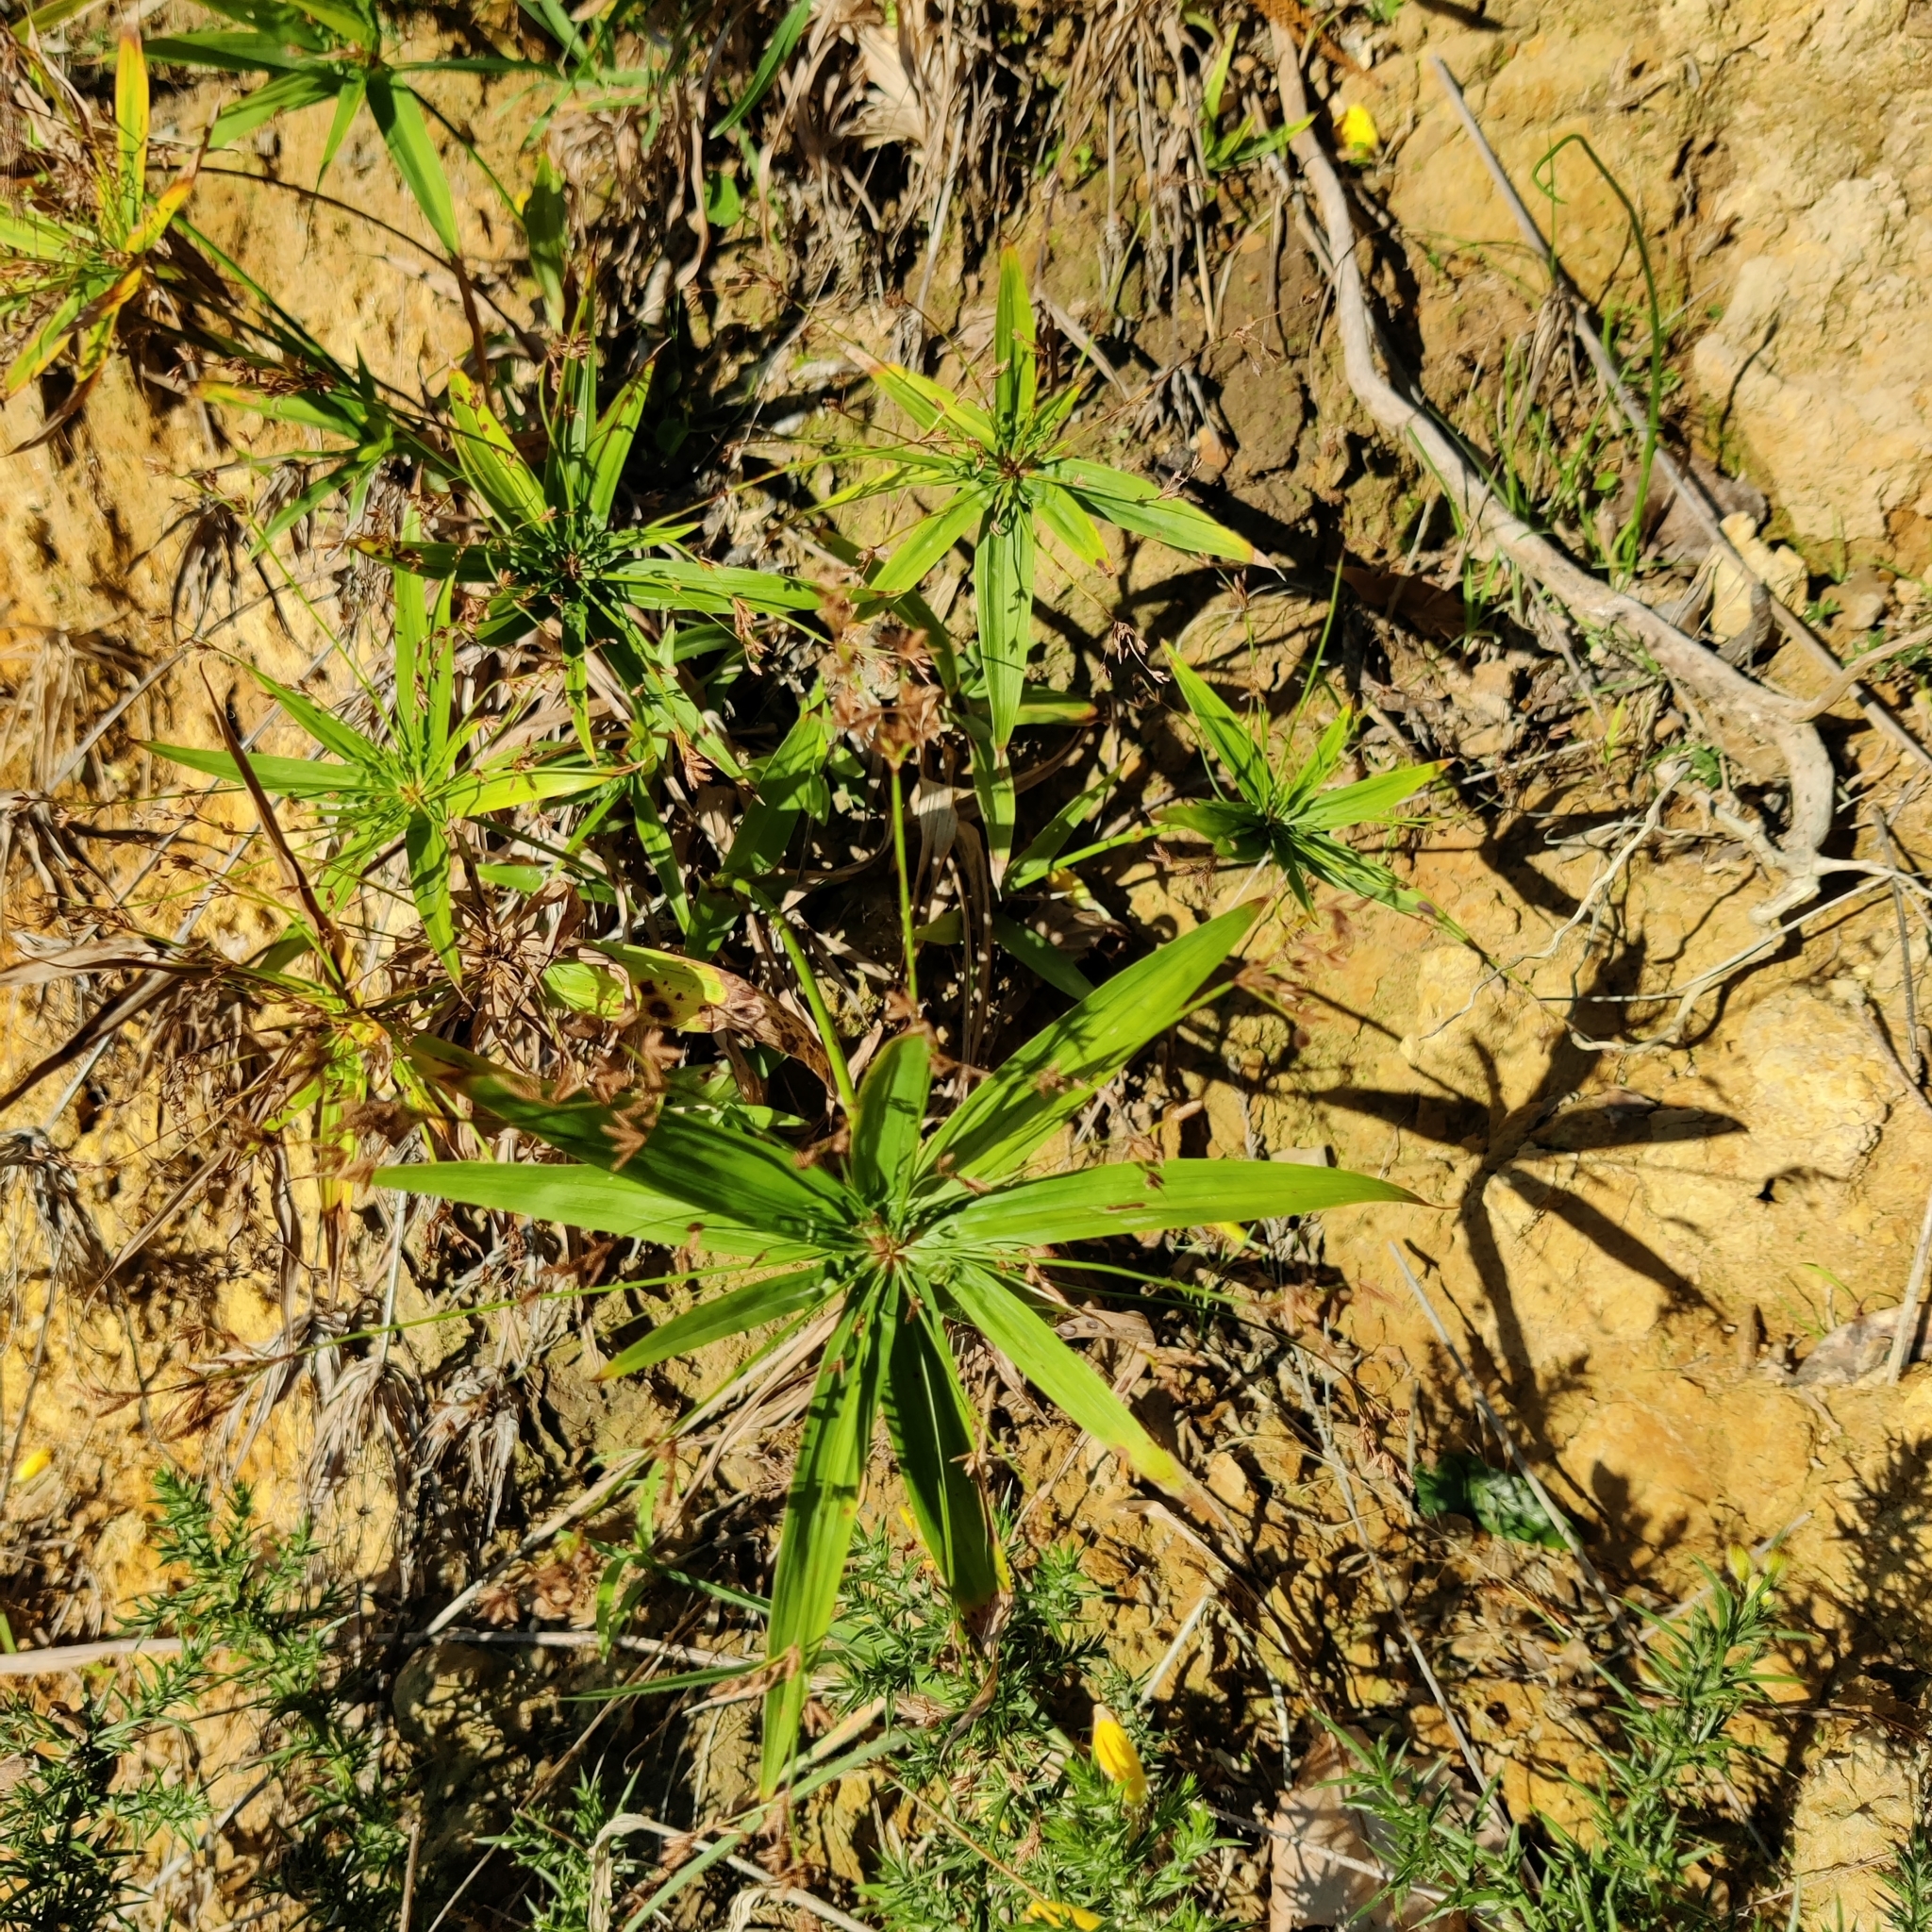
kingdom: Plantae
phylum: Tracheophyta
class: Liliopsida
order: Poales
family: Cyperaceae
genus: Cyperus
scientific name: Cyperus albostriatus
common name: Dwarf umbrella-grass
